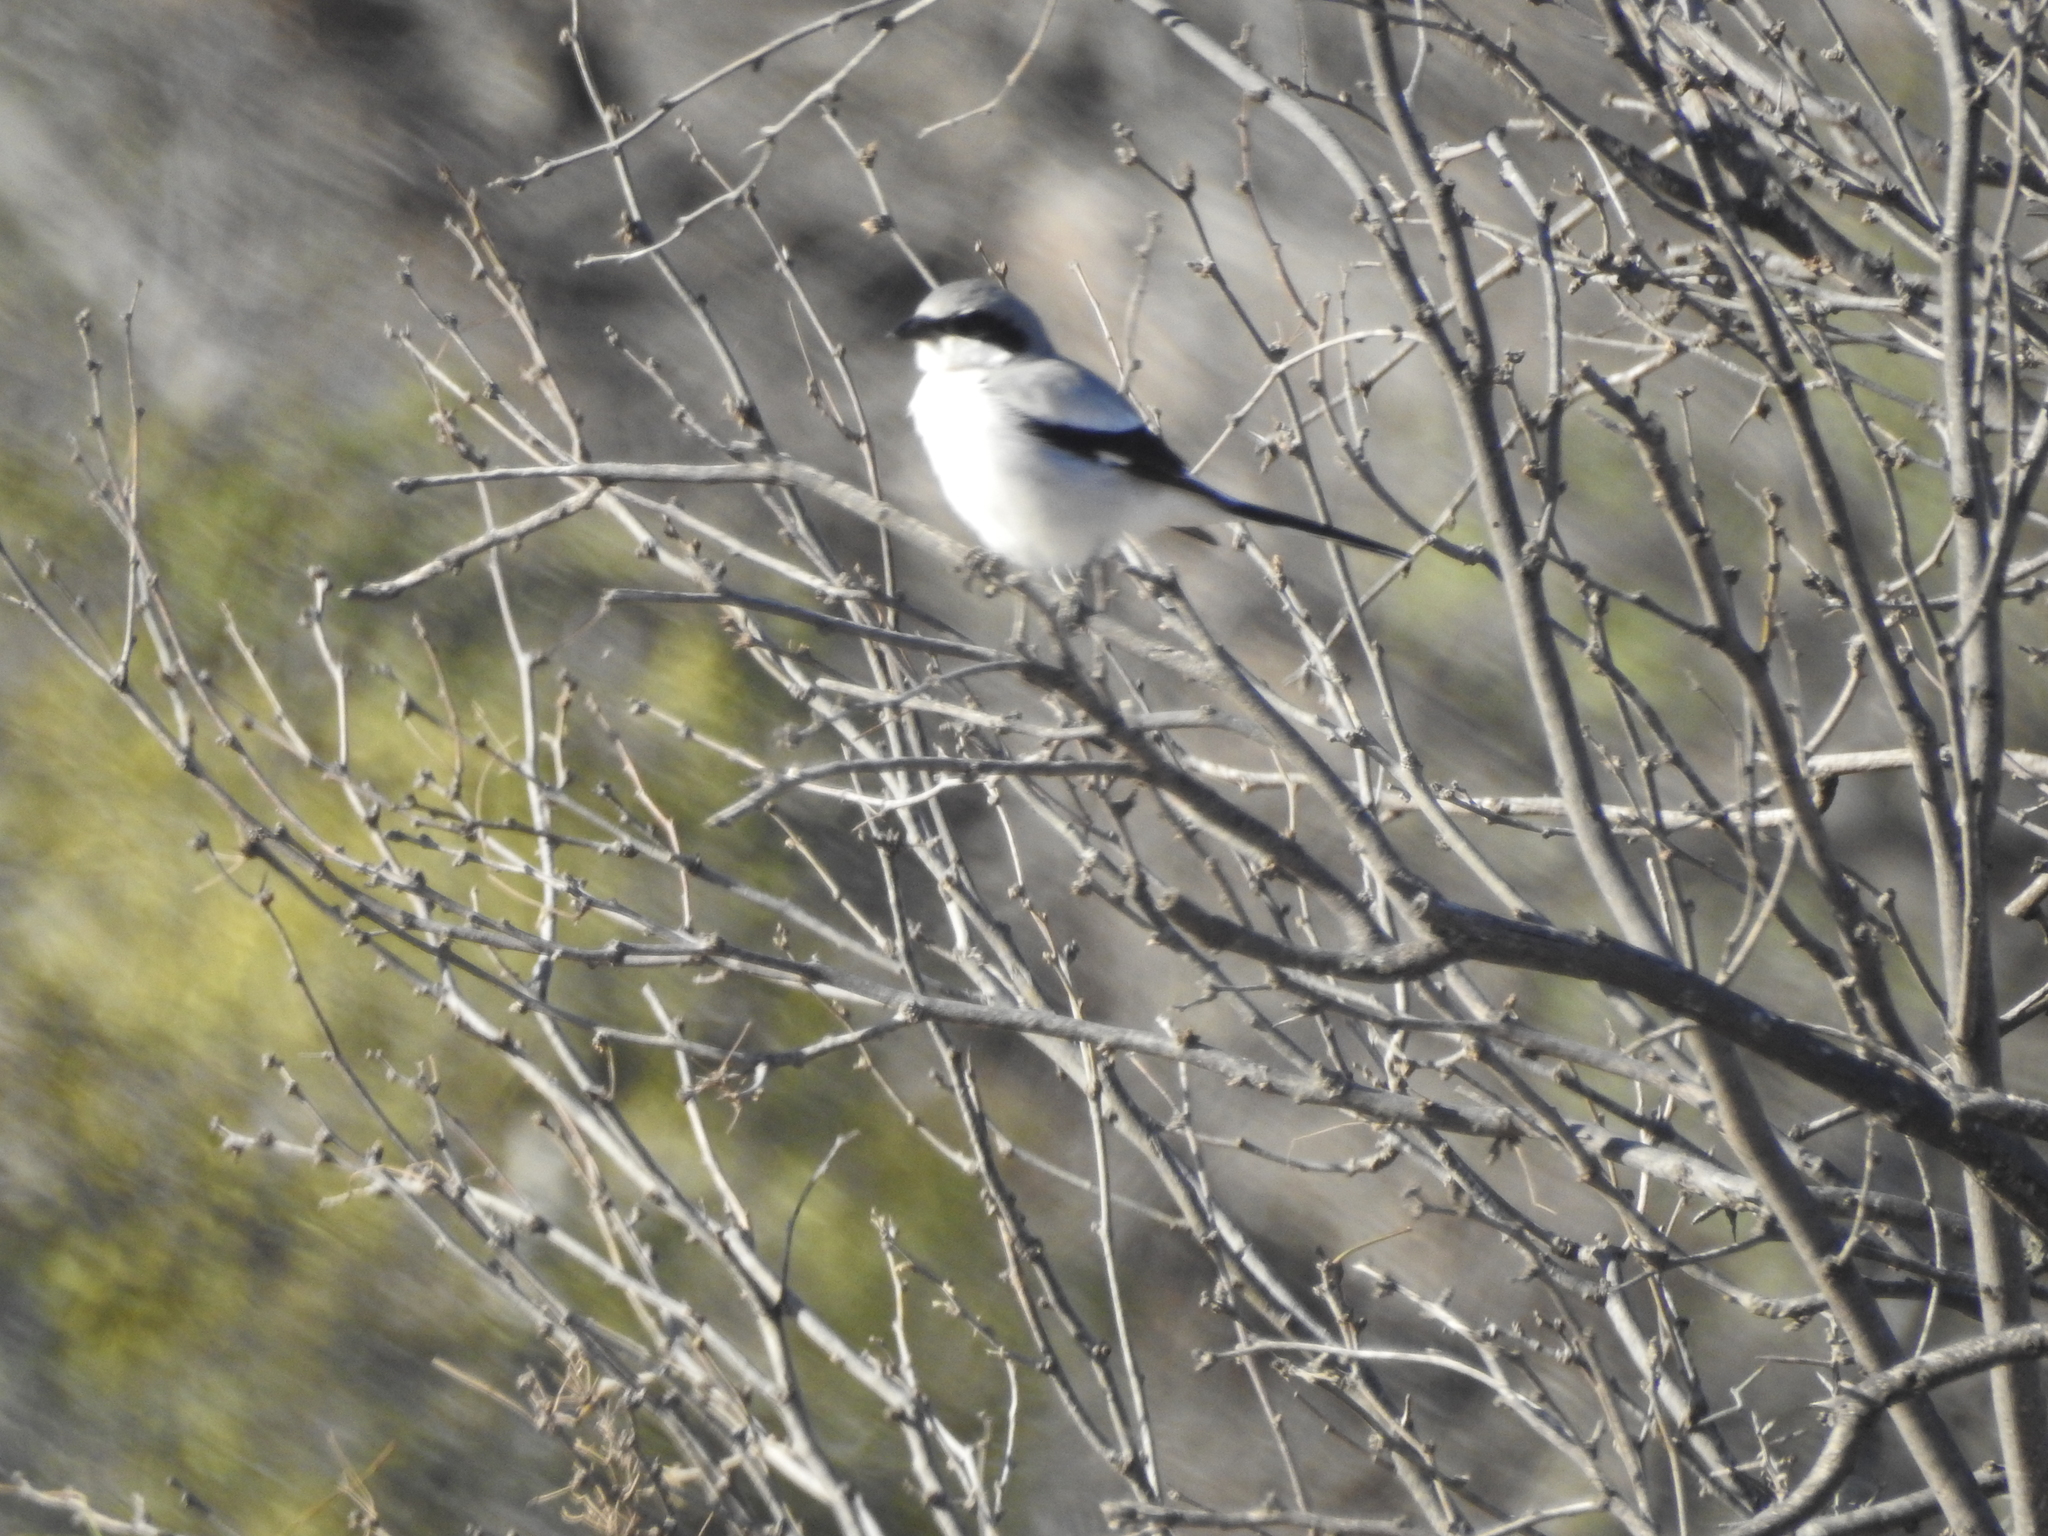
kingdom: Animalia
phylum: Chordata
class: Aves
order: Passeriformes
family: Laniidae
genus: Lanius
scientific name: Lanius ludovicianus
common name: Loggerhead shrike
